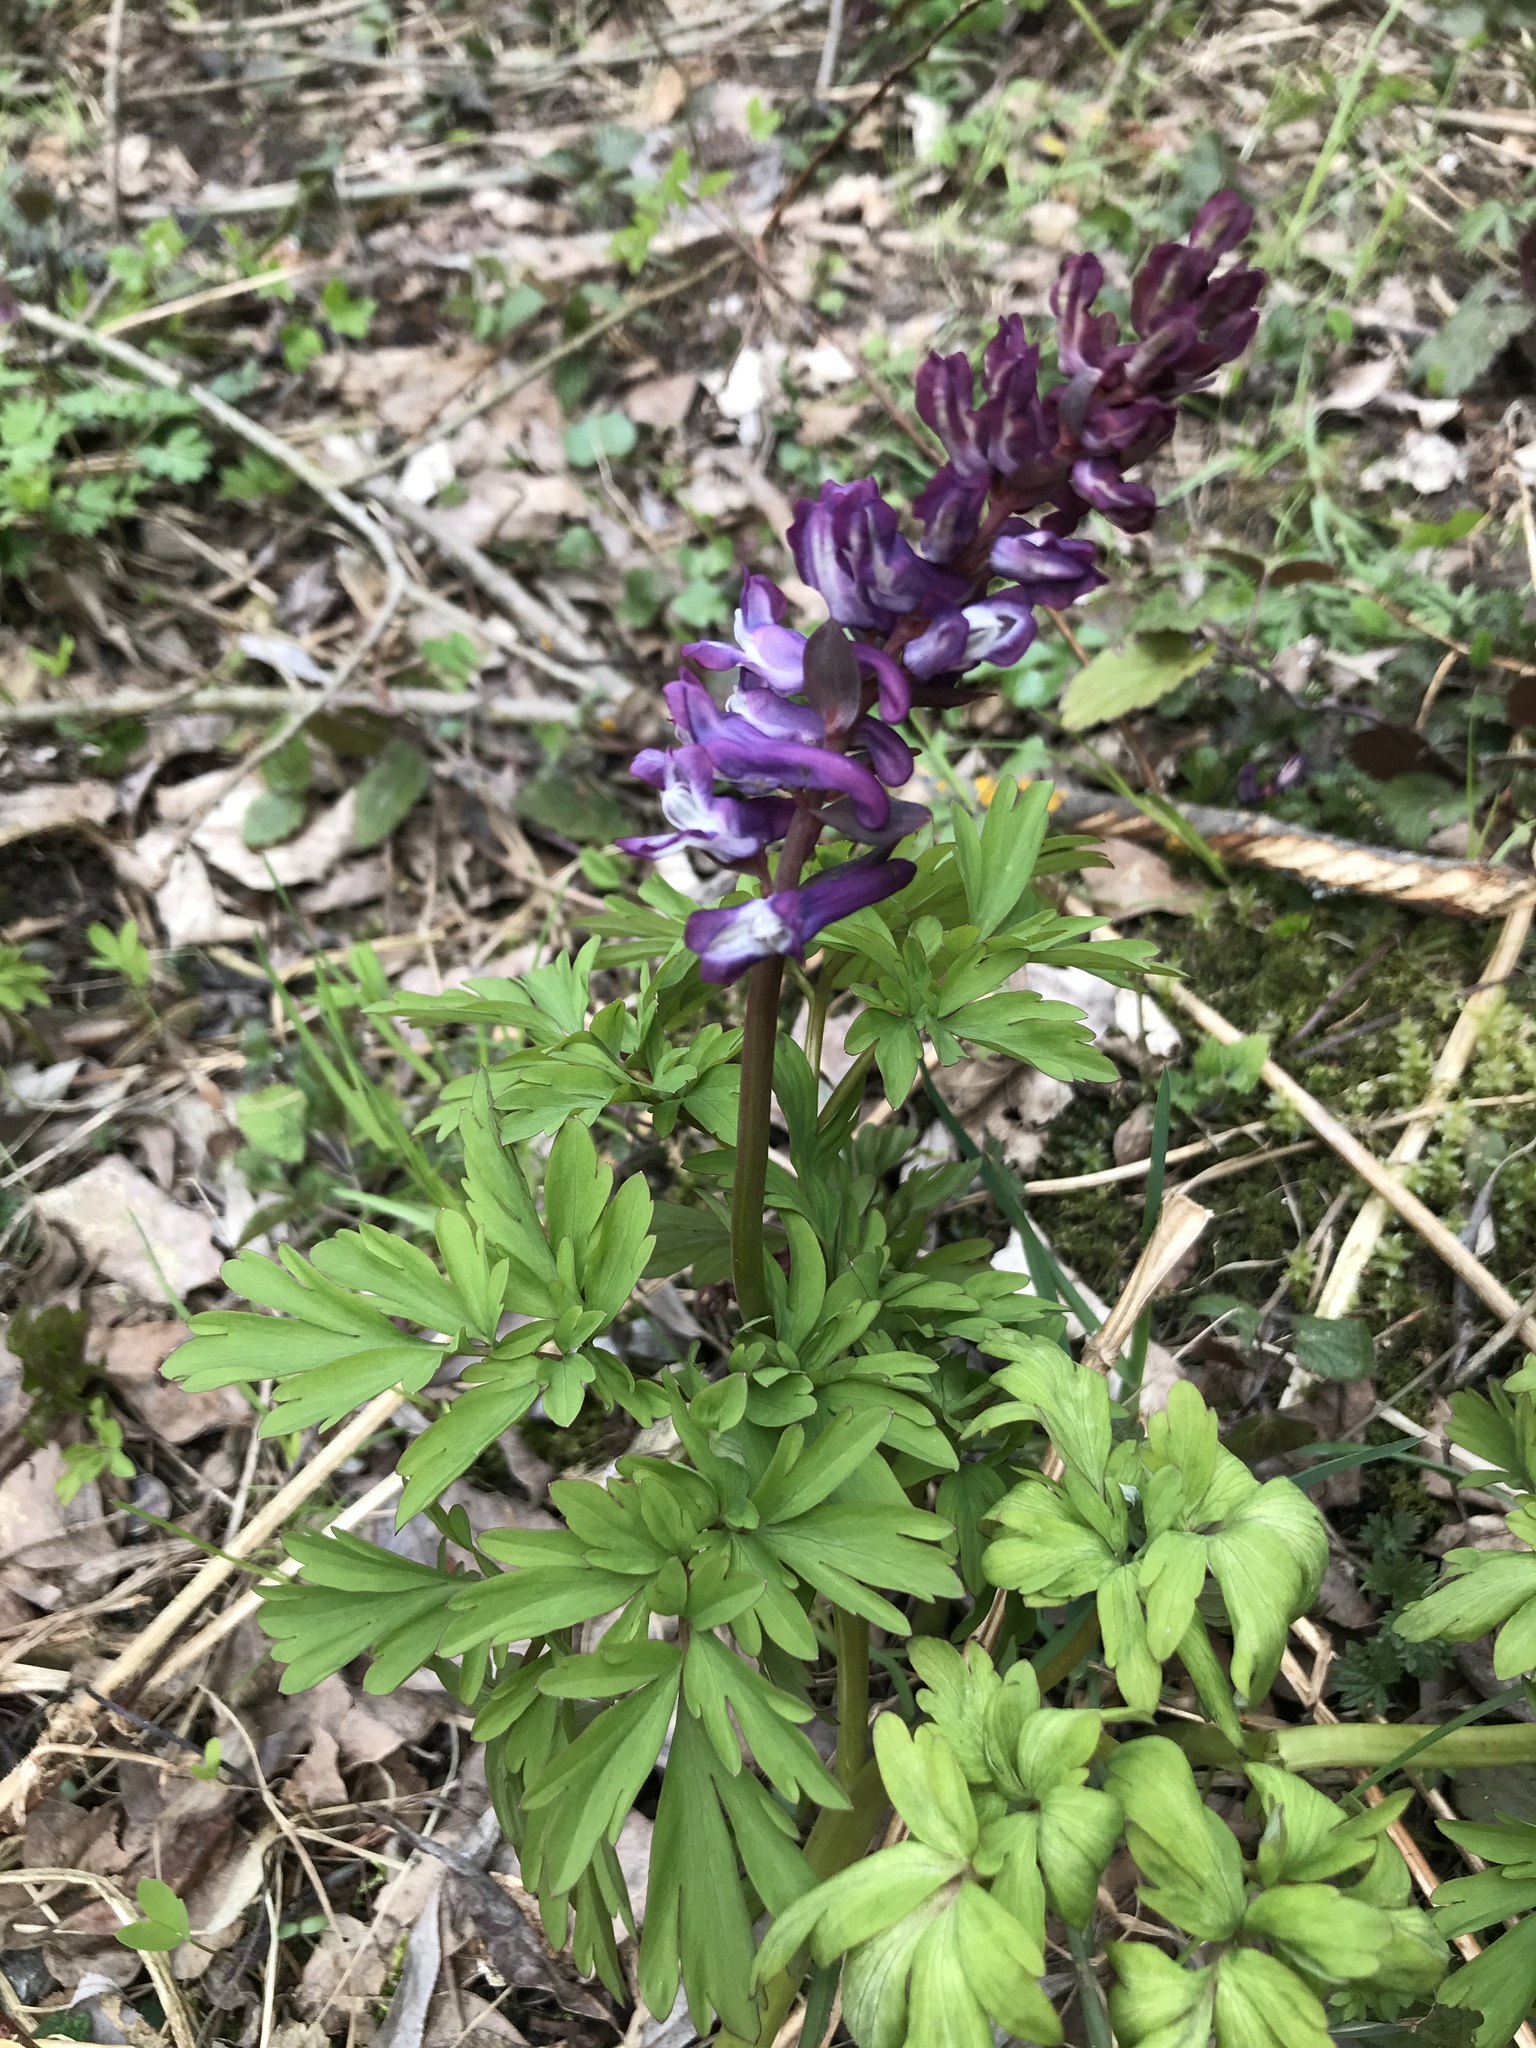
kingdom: Plantae
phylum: Tracheophyta
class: Magnoliopsida
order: Ranunculales
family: Papaveraceae
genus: Corydalis
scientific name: Corydalis cava
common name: Hollowroot
